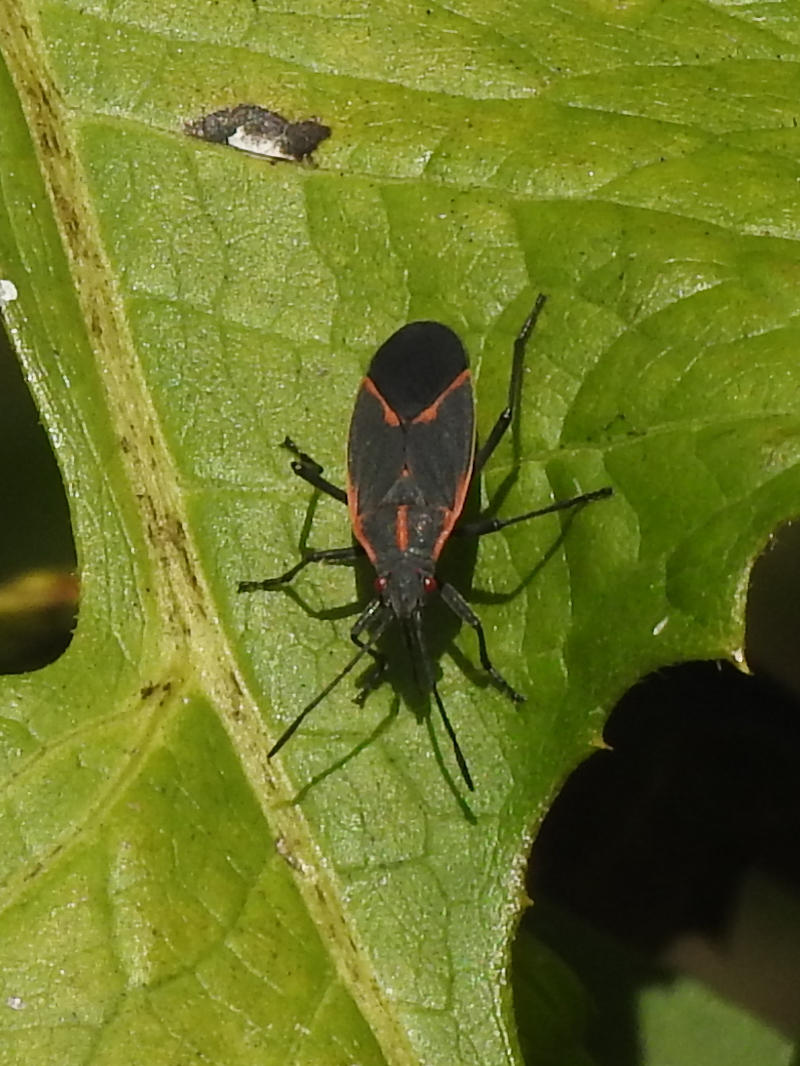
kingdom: Animalia
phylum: Arthropoda
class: Insecta
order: Hemiptera
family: Rhopalidae
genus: Boisea
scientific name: Boisea trivittata
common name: Boxelder bug
